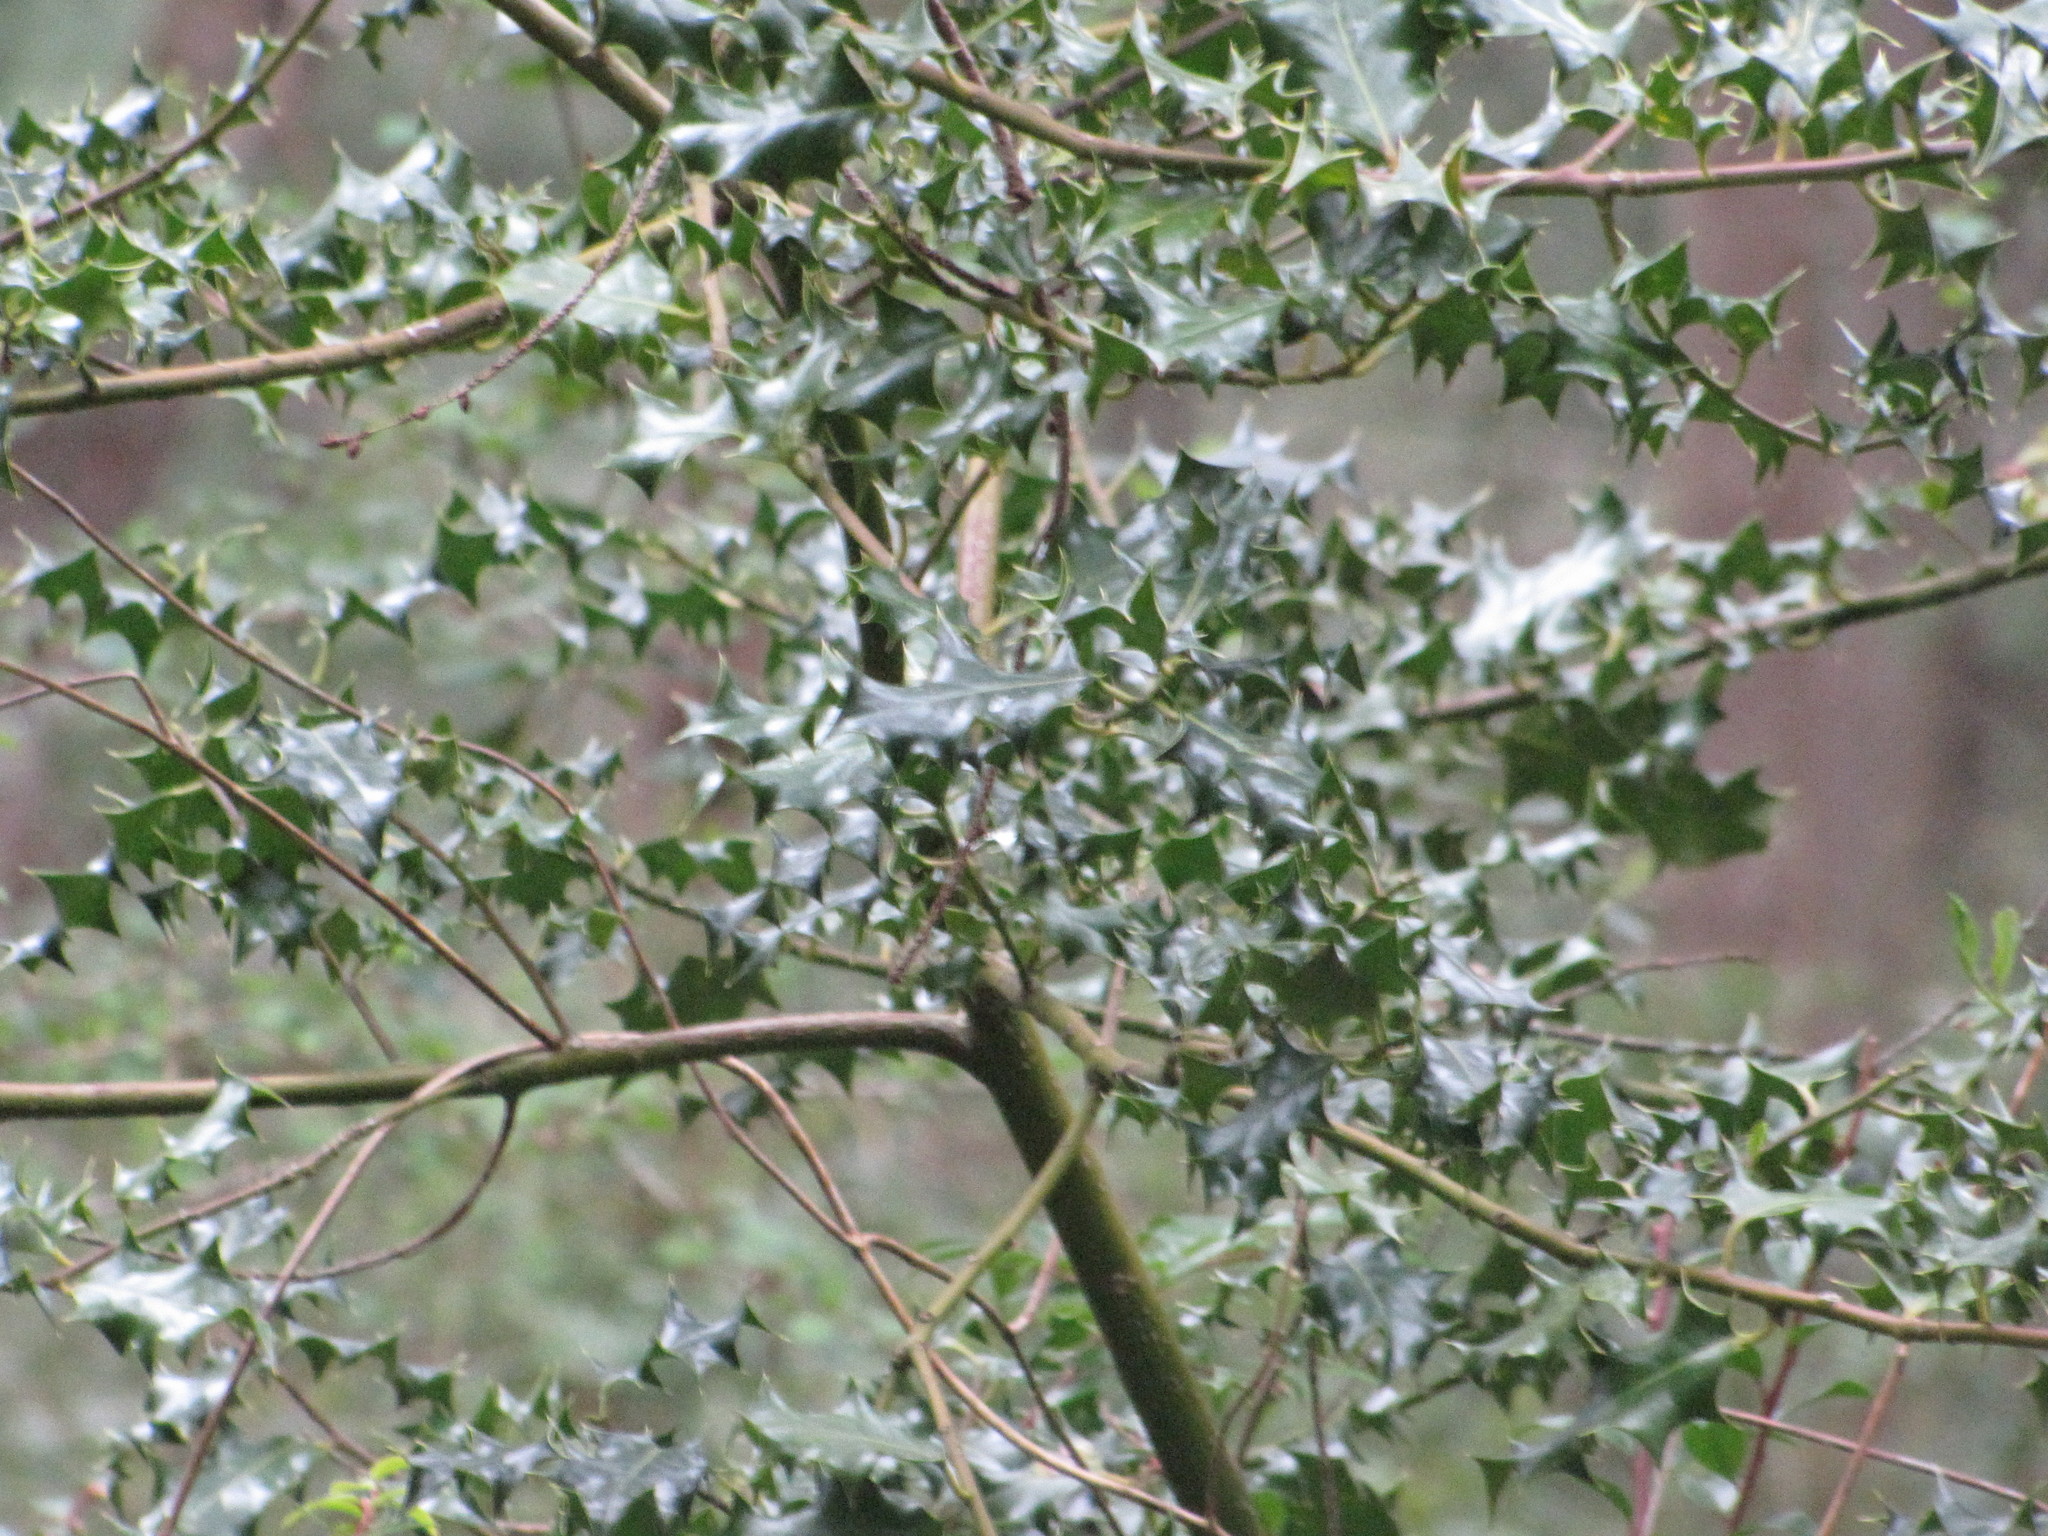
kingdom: Plantae
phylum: Tracheophyta
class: Magnoliopsida
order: Aquifoliales
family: Aquifoliaceae
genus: Ilex
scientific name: Ilex aquifolium
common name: English holly
